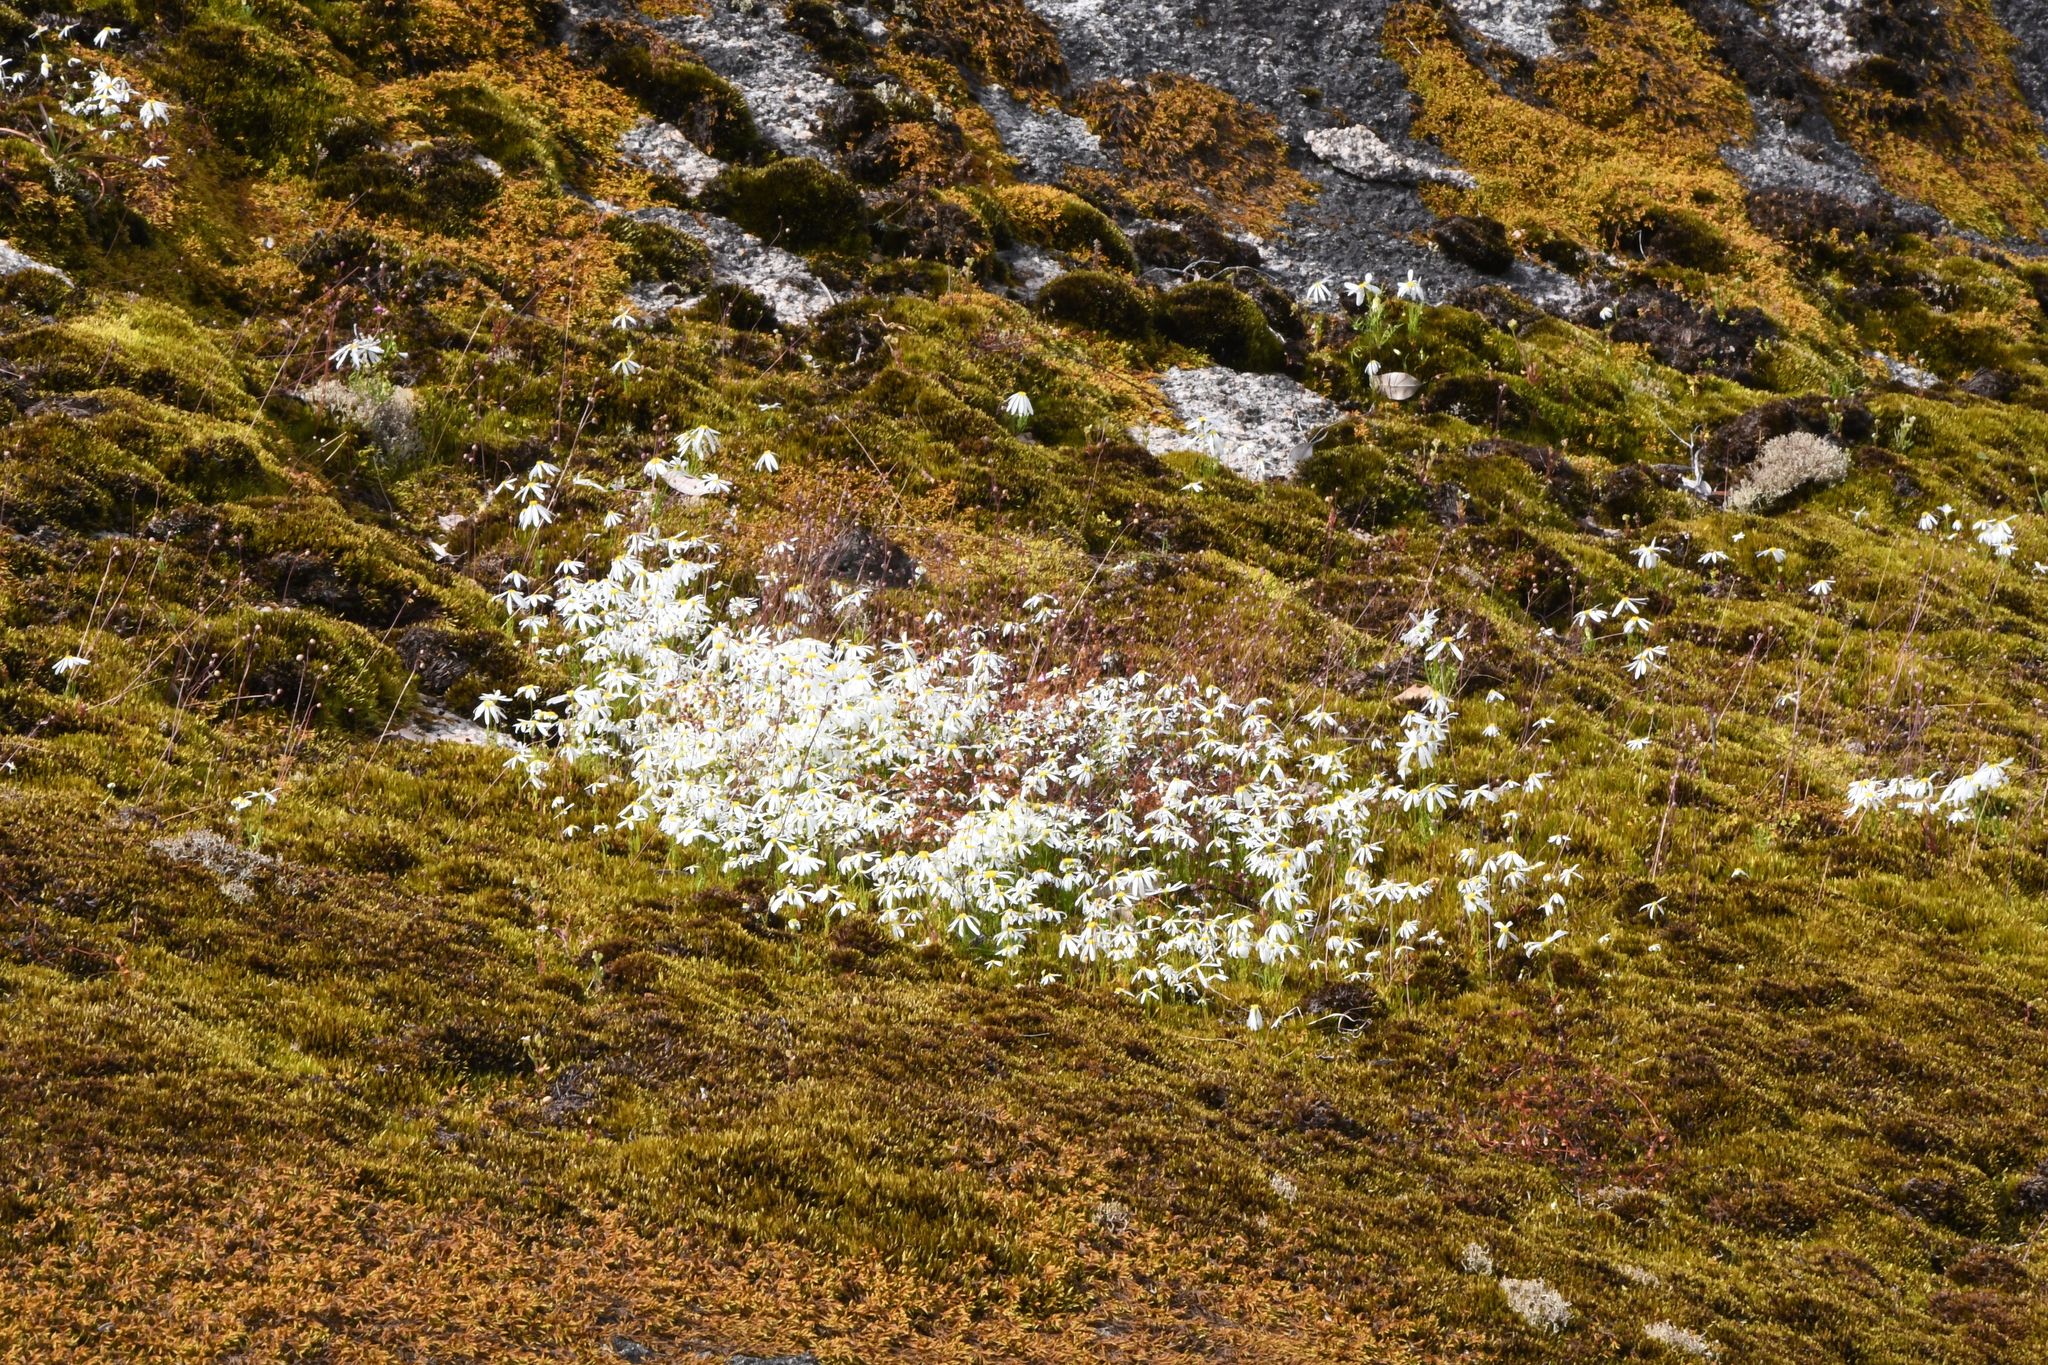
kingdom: Plantae
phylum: Tracheophyta
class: Magnoliopsida
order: Asterales
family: Asteraceae
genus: Brachyscome
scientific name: Brachyscome iberidifolia
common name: Swan river daisy
